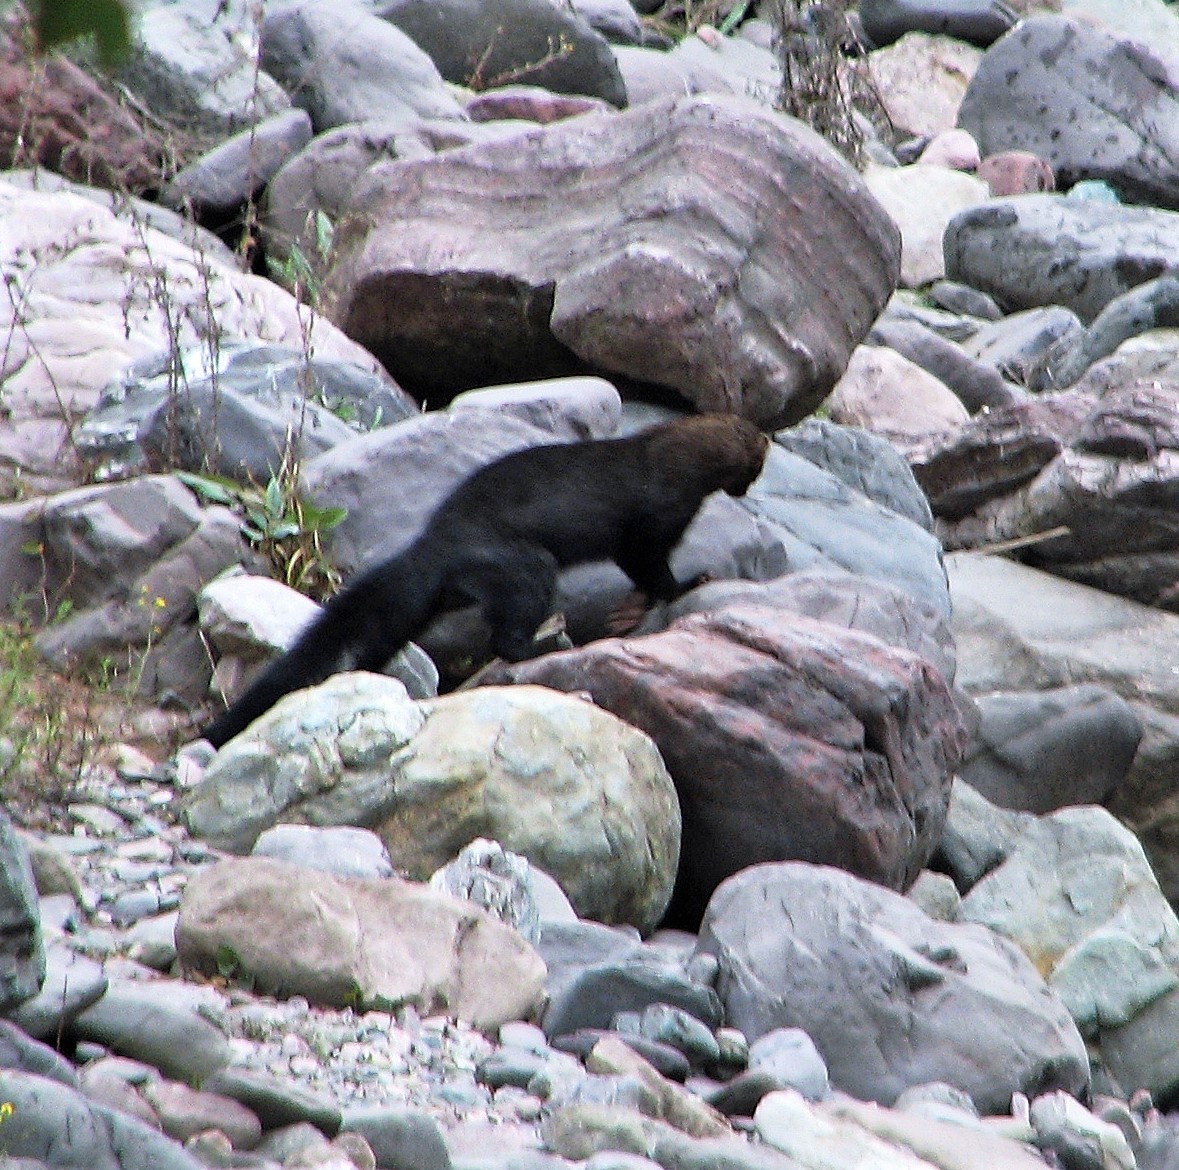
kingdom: Animalia
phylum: Chordata
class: Mammalia
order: Carnivora
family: Mustelidae
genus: Eira
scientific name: Eira barbara
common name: Tayra
